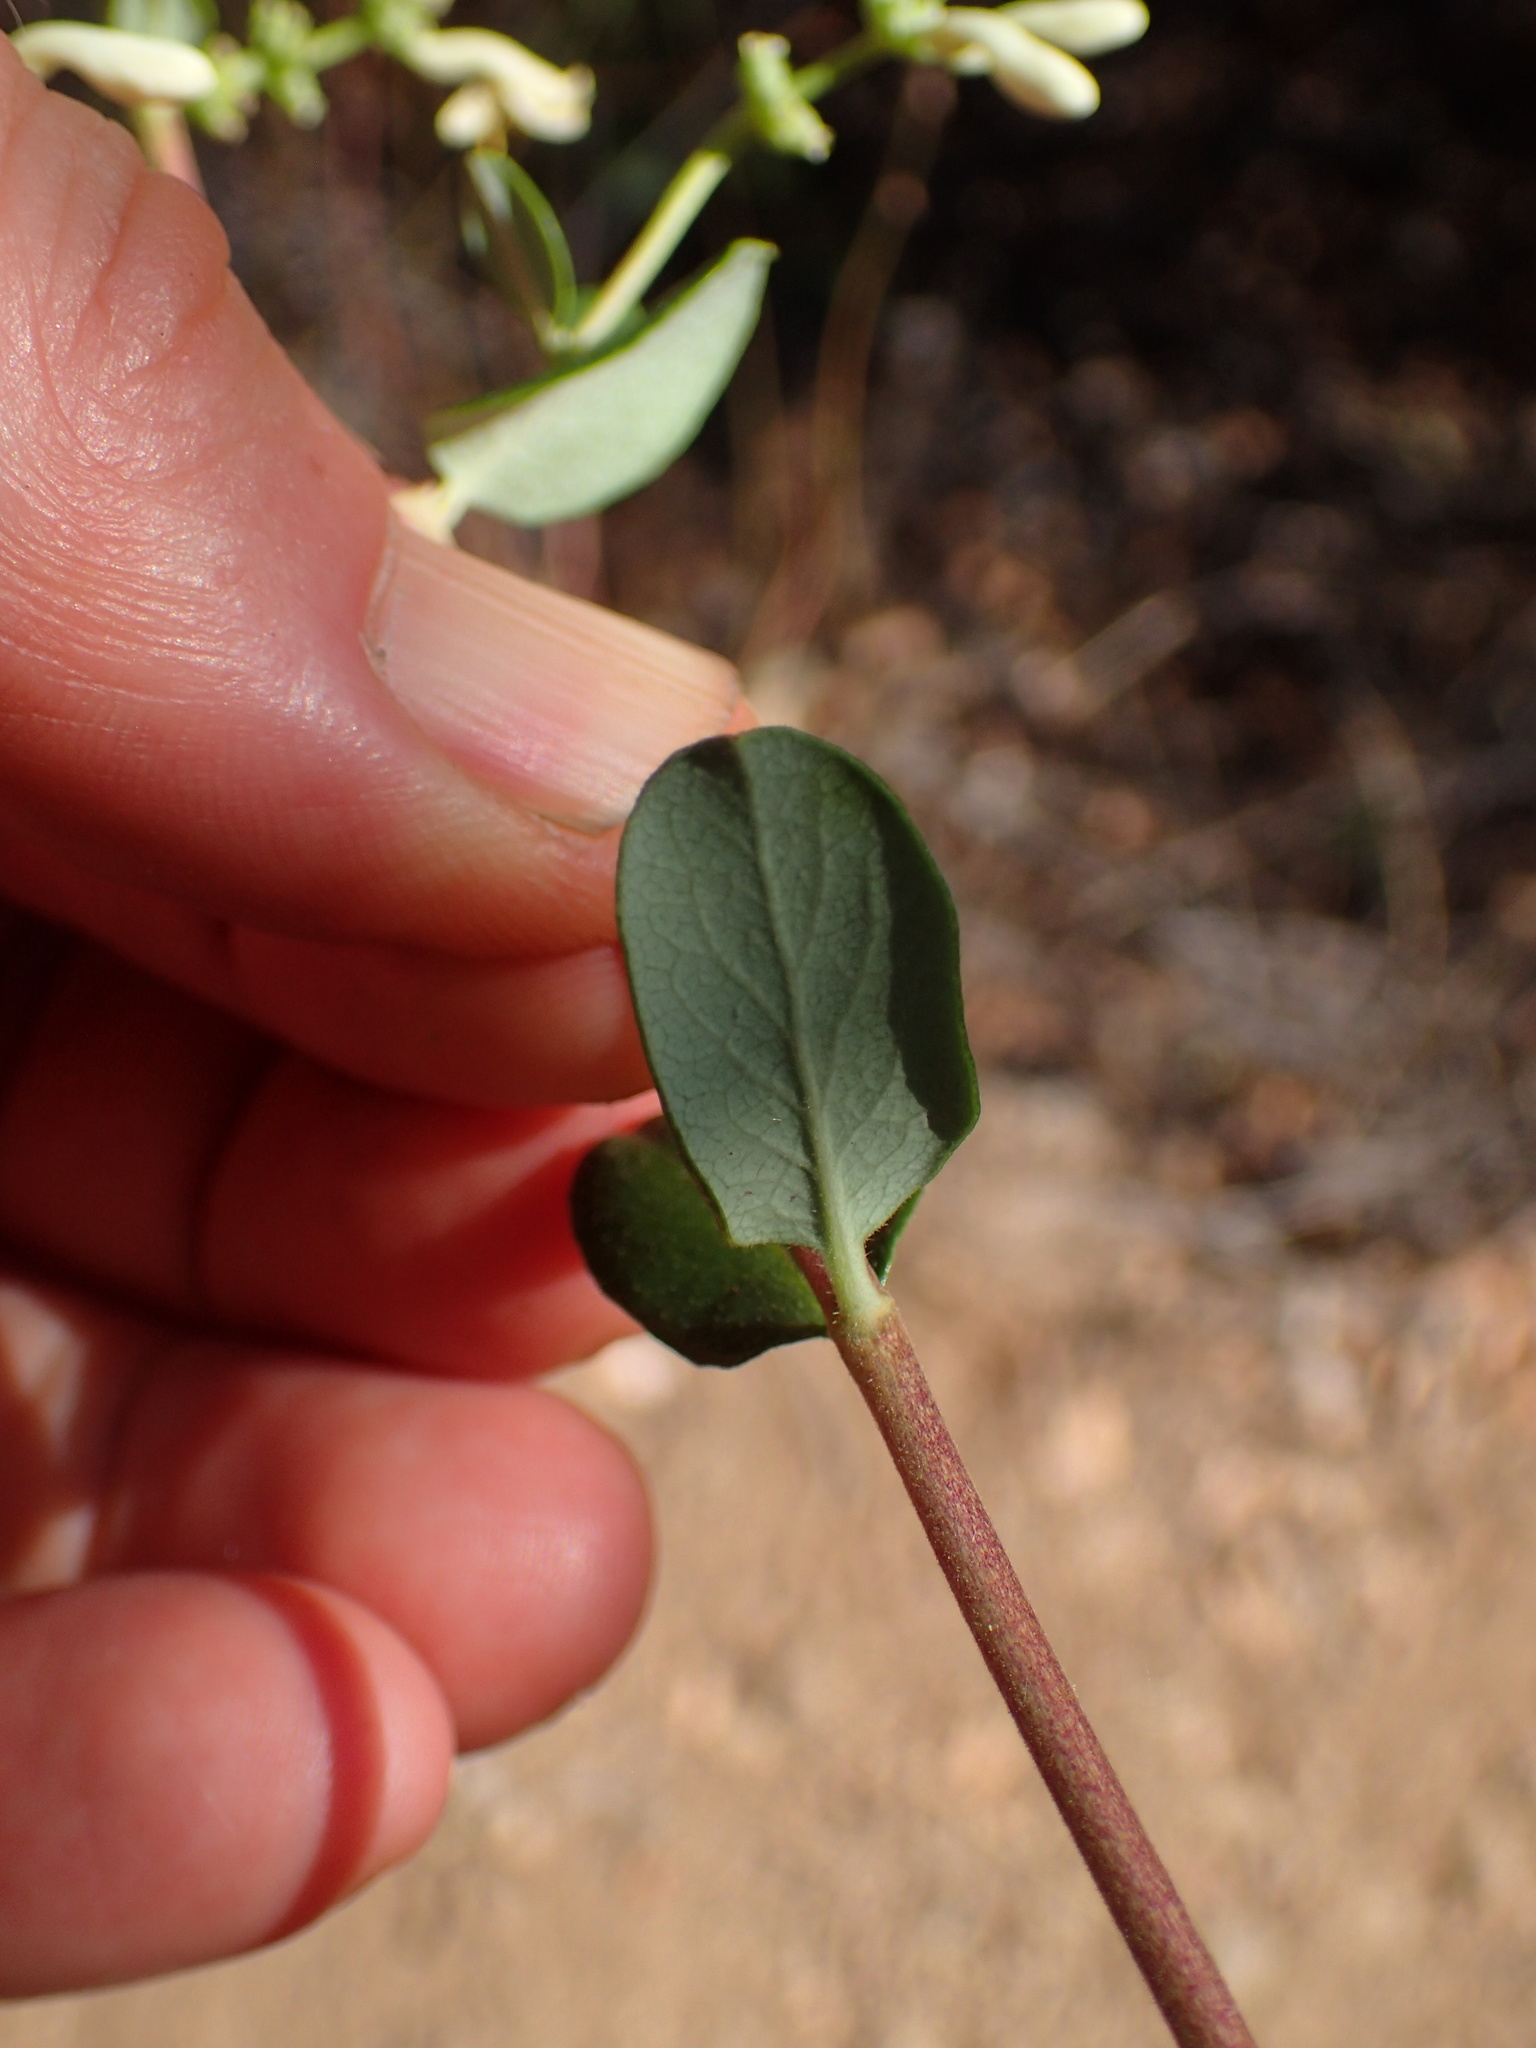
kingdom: Plantae
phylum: Tracheophyta
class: Magnoliopsida
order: Dipsacales
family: Caprifoliaceae
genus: Lonicera
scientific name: Lonicera subspicata
